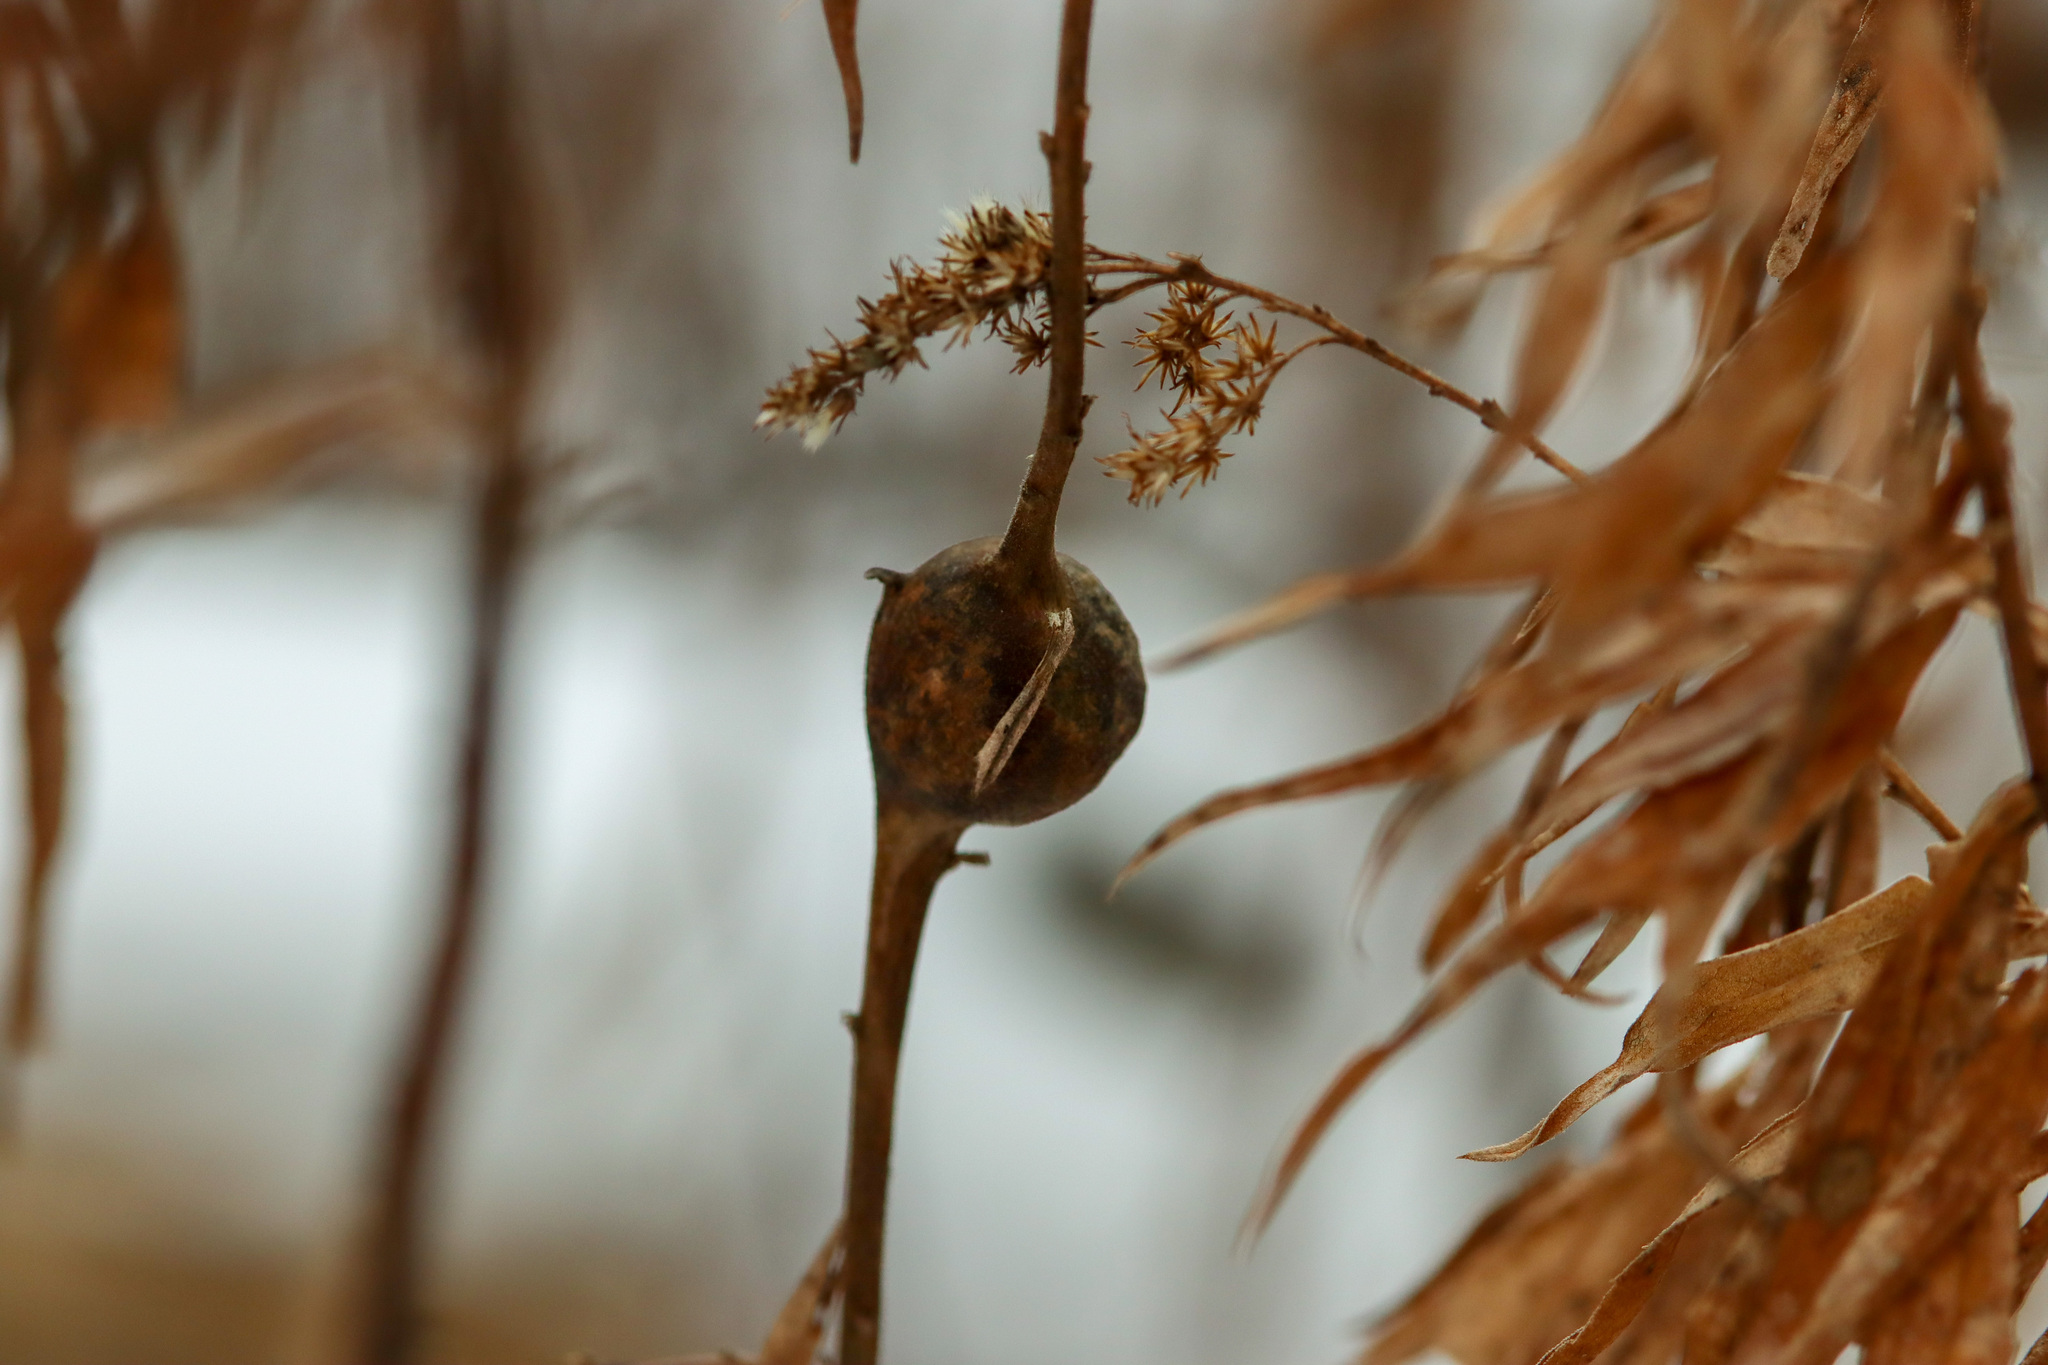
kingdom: Animalia
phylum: Arthropoda
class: Insecta
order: Diptera
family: Tephritidae
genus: Eurosta
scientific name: Eurosta solidaginis
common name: Goldenrod gall fly
